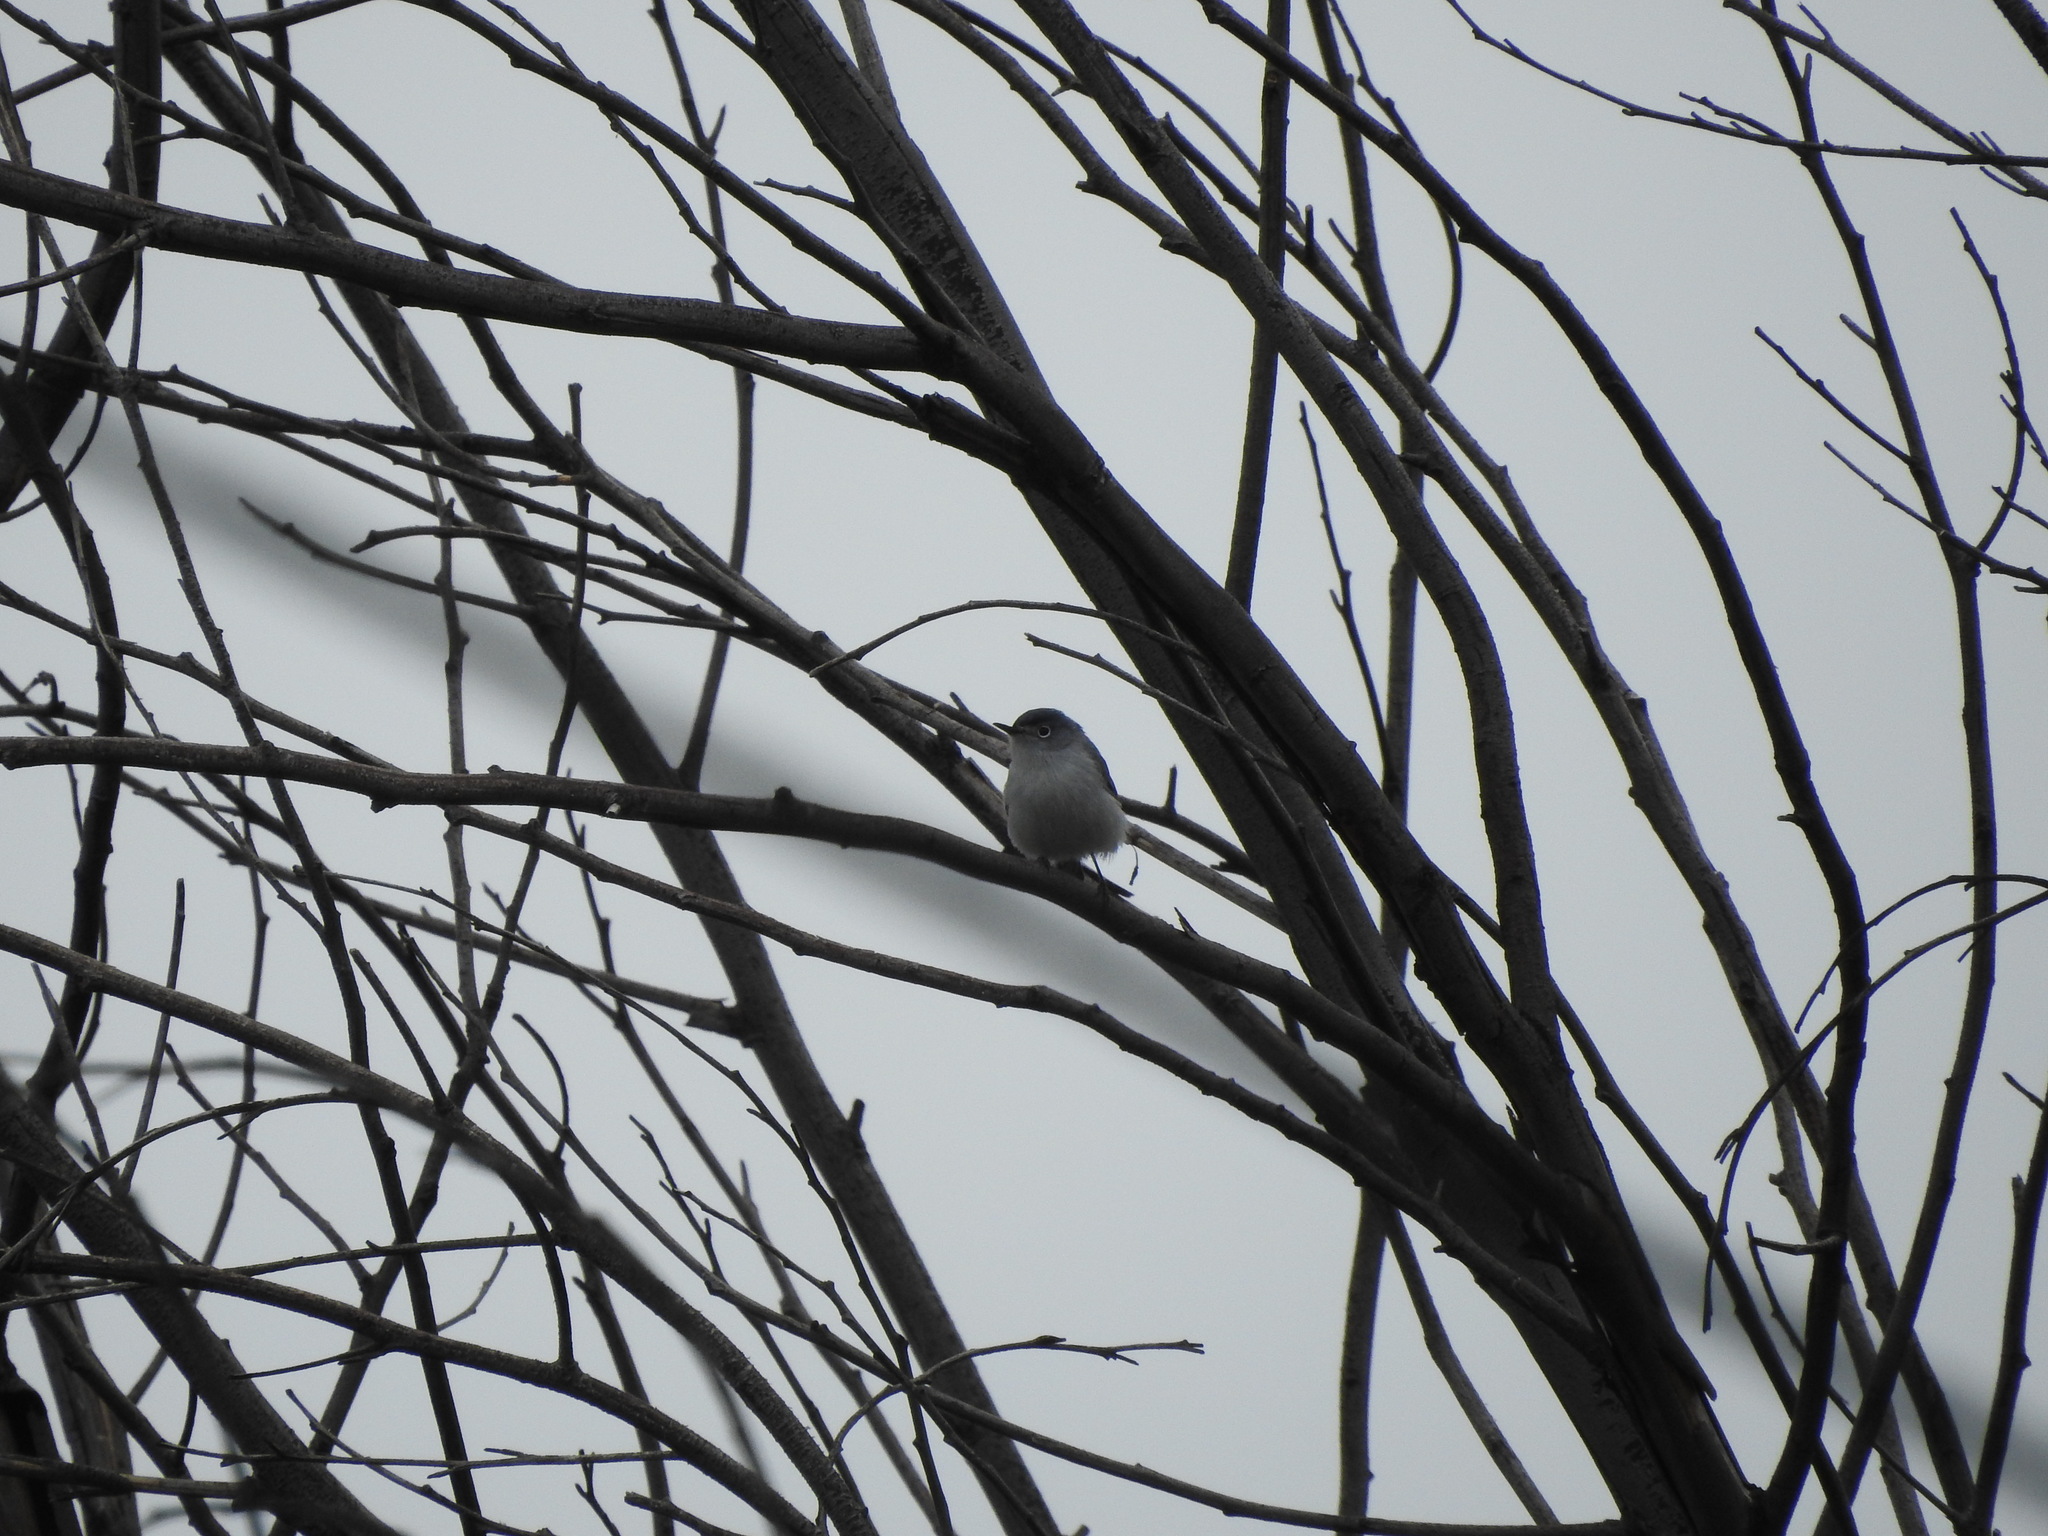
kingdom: Animalia
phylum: Chordata
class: Aves
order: Passeriformes
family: Polioptilidae
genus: Polioptila
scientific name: Polioptila caerulea
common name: Blue-gray gnatcatcher
